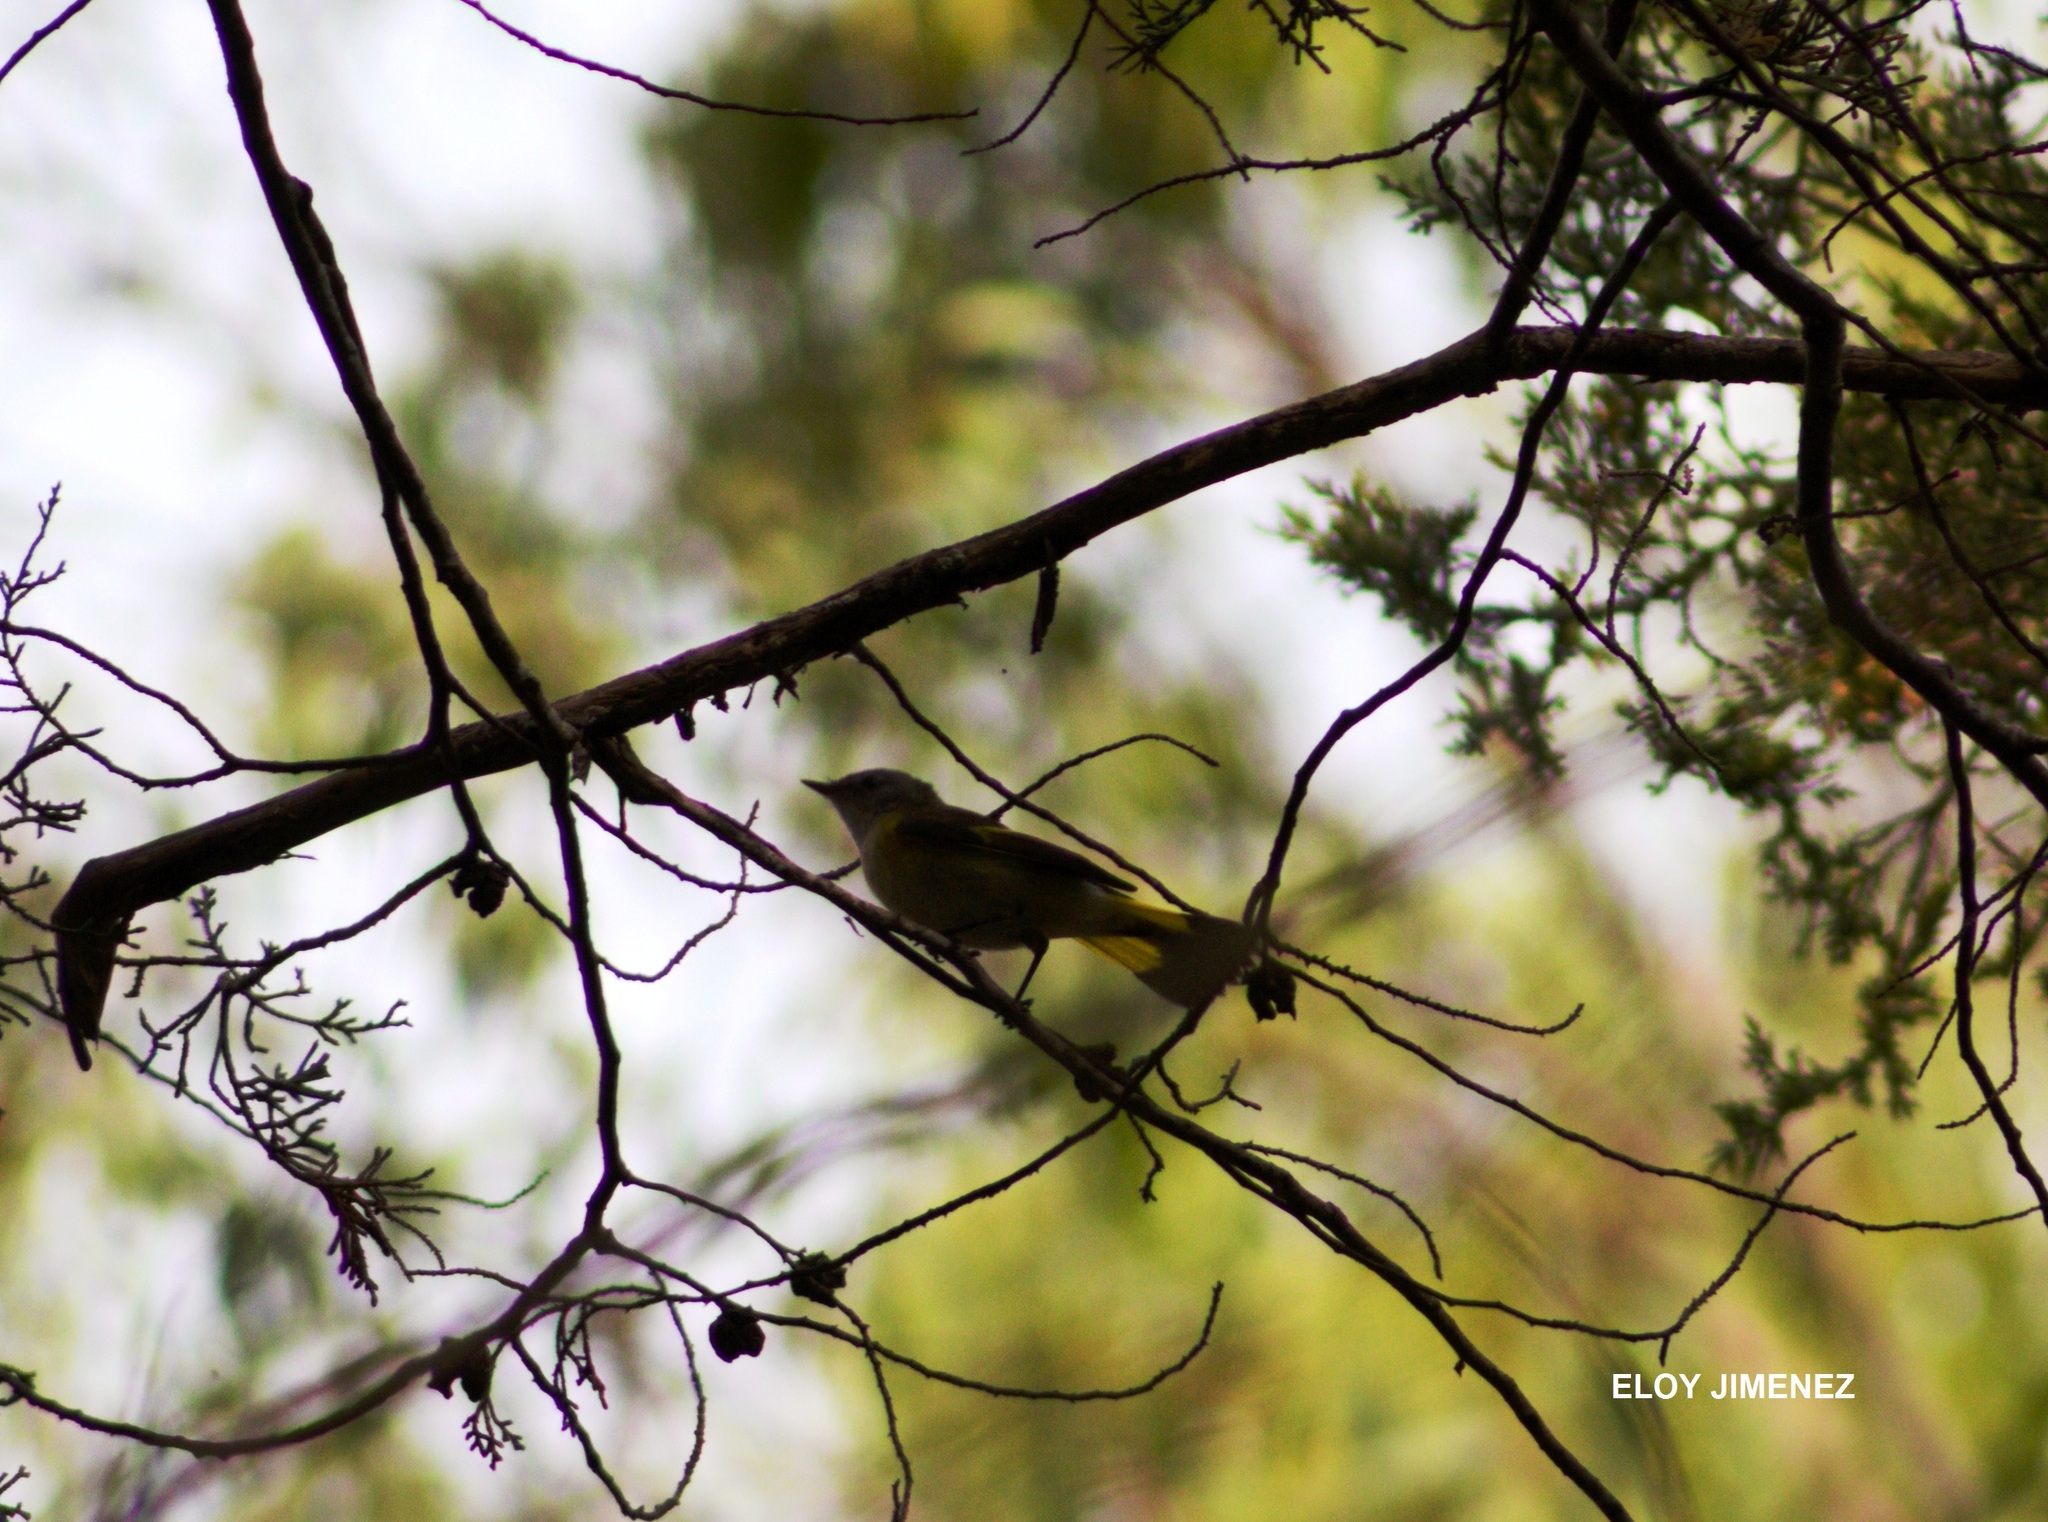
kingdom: Animalia
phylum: Chordata
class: Aves
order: Passeriformes
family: Parulidae
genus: Setophaga
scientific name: Setophaga ruticilla
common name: American redstart
